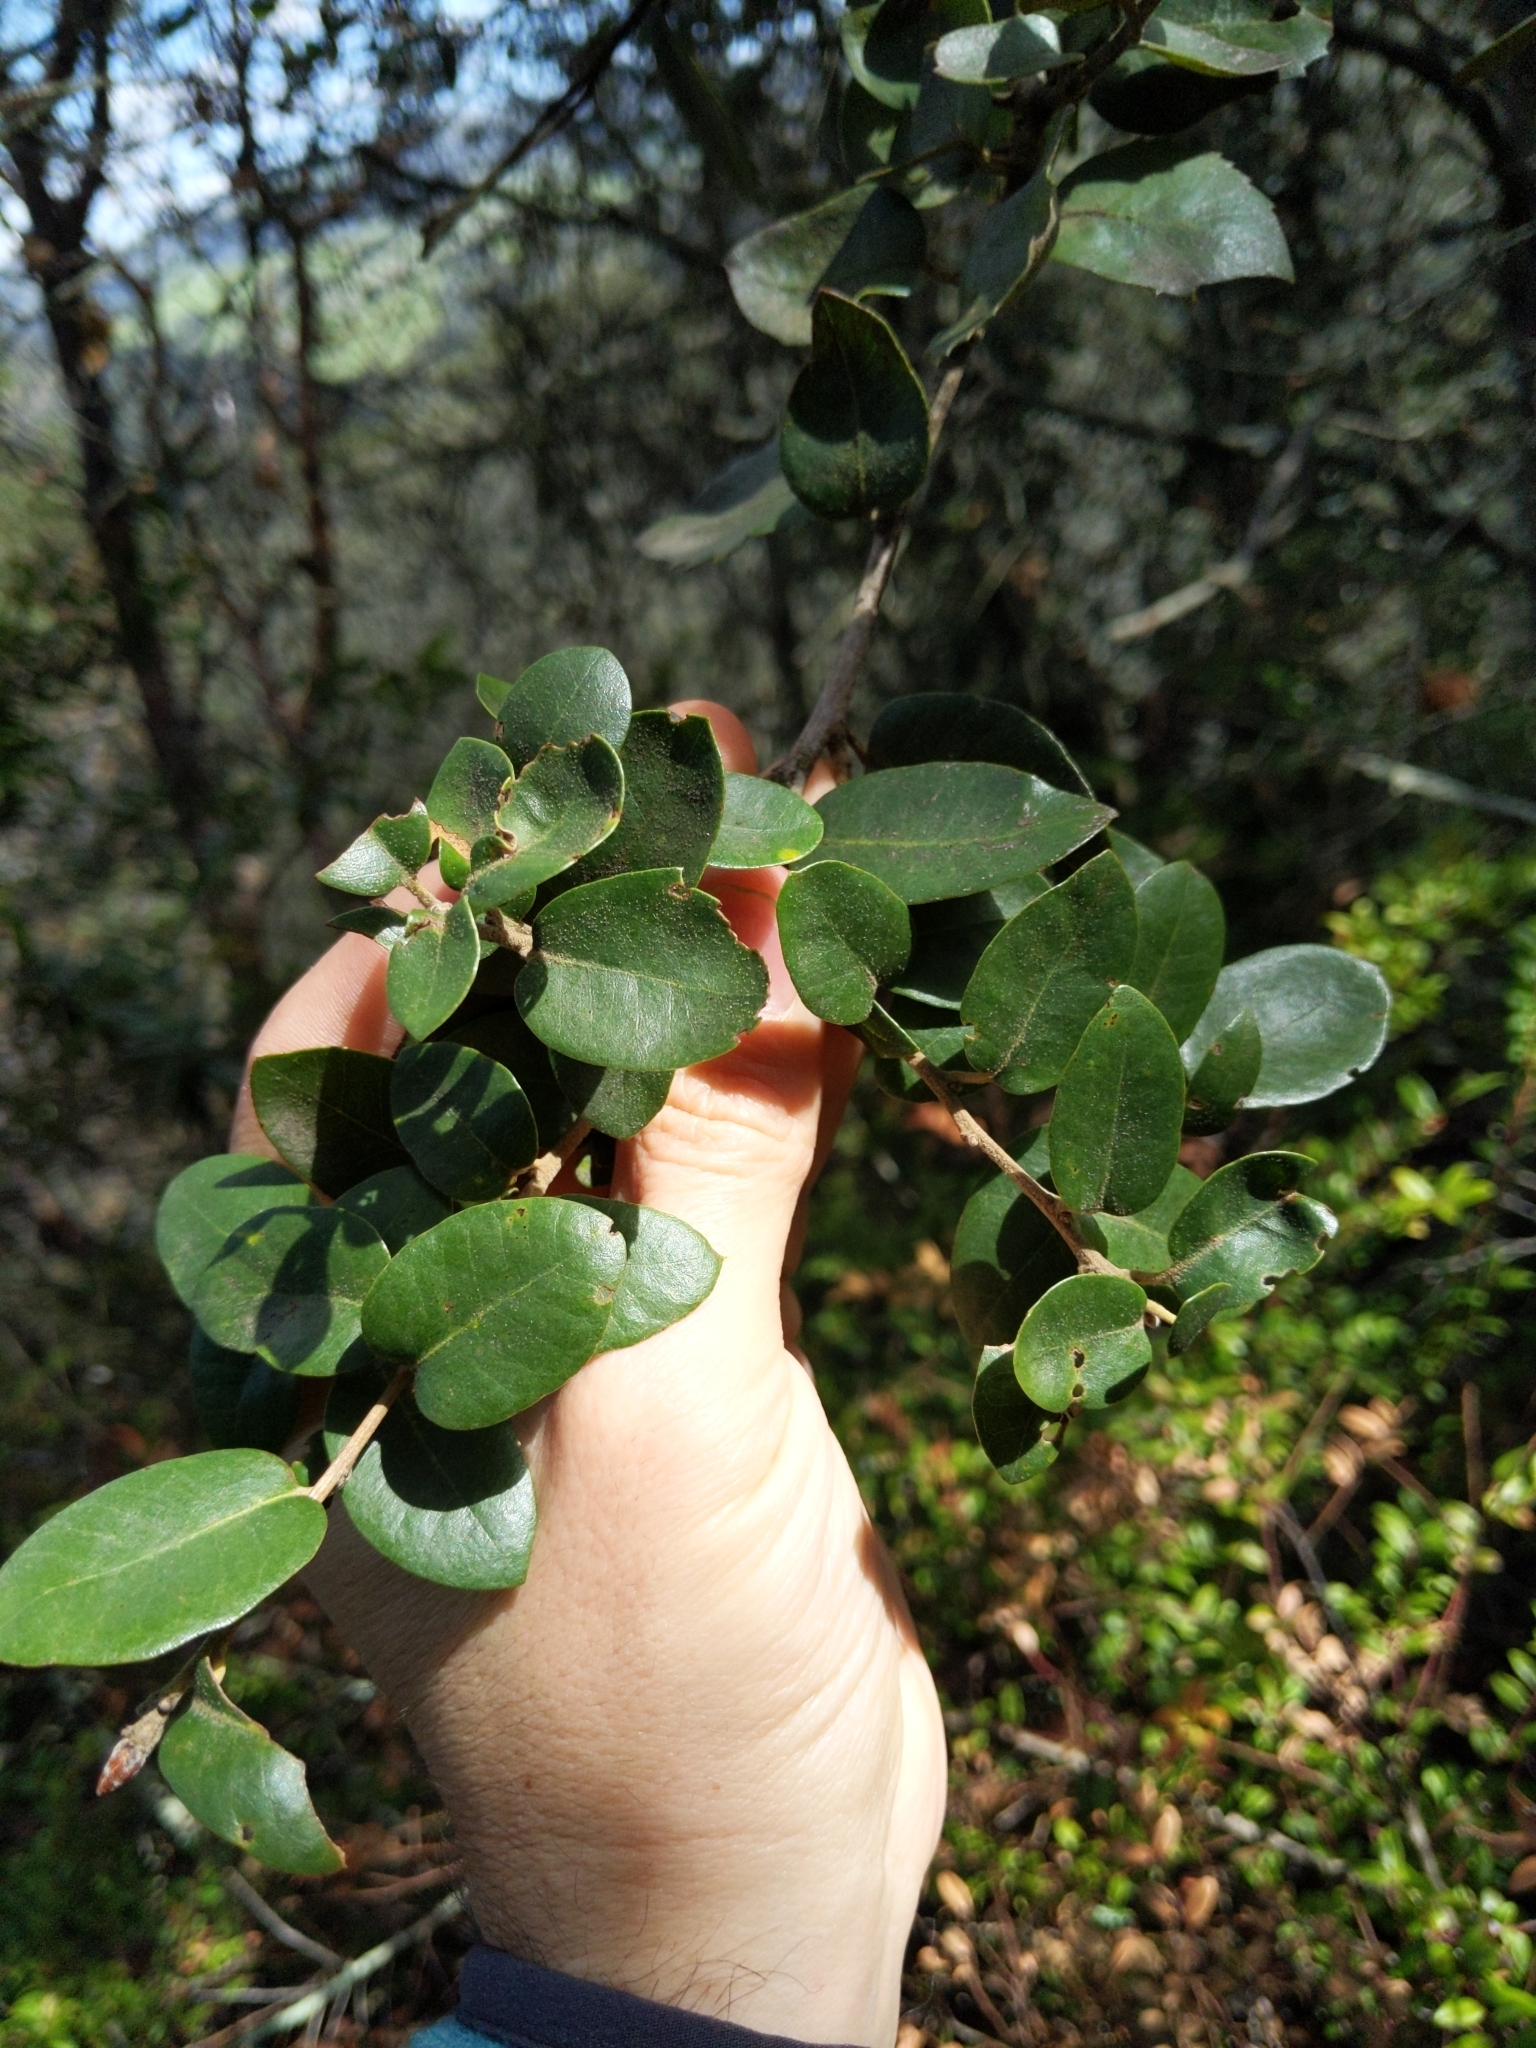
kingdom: Plantae
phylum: Tracheophyta
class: Magnoliopsida
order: Fagales
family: Fagaceae
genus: Quercus
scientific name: Quercus chrysolepis
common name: Canyon live oak
